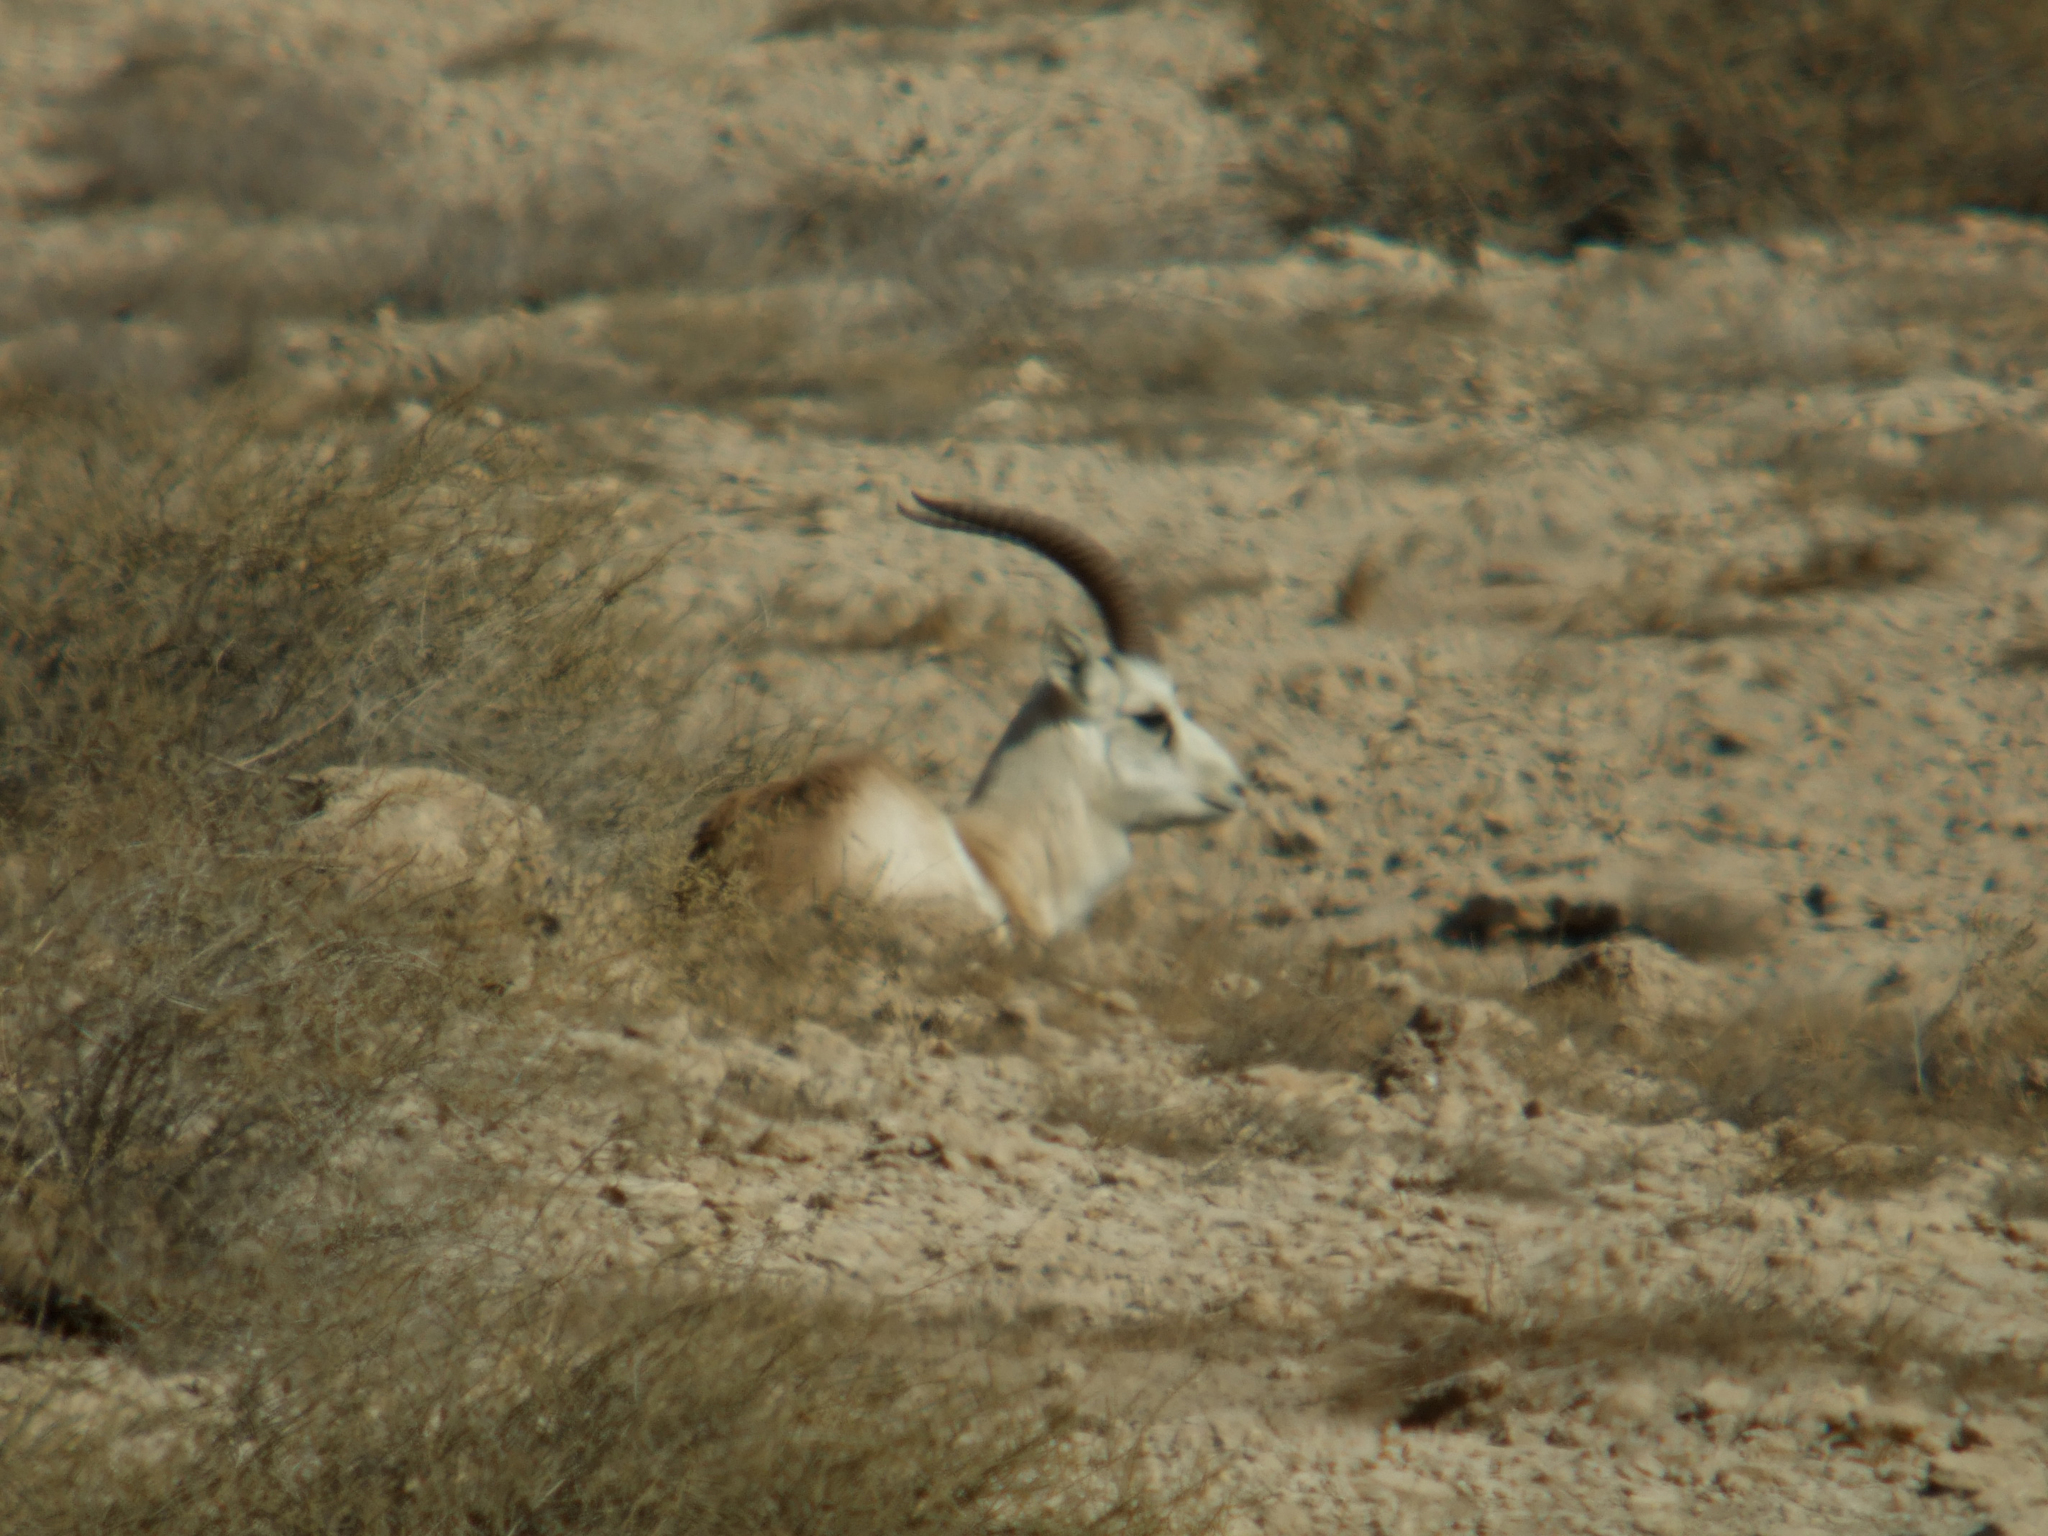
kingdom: Animalia
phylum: Chordata
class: Mammalia
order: Artiodactyla
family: Bovidae
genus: Gazella
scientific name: Gazella marica
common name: Arabian sand gazelle
